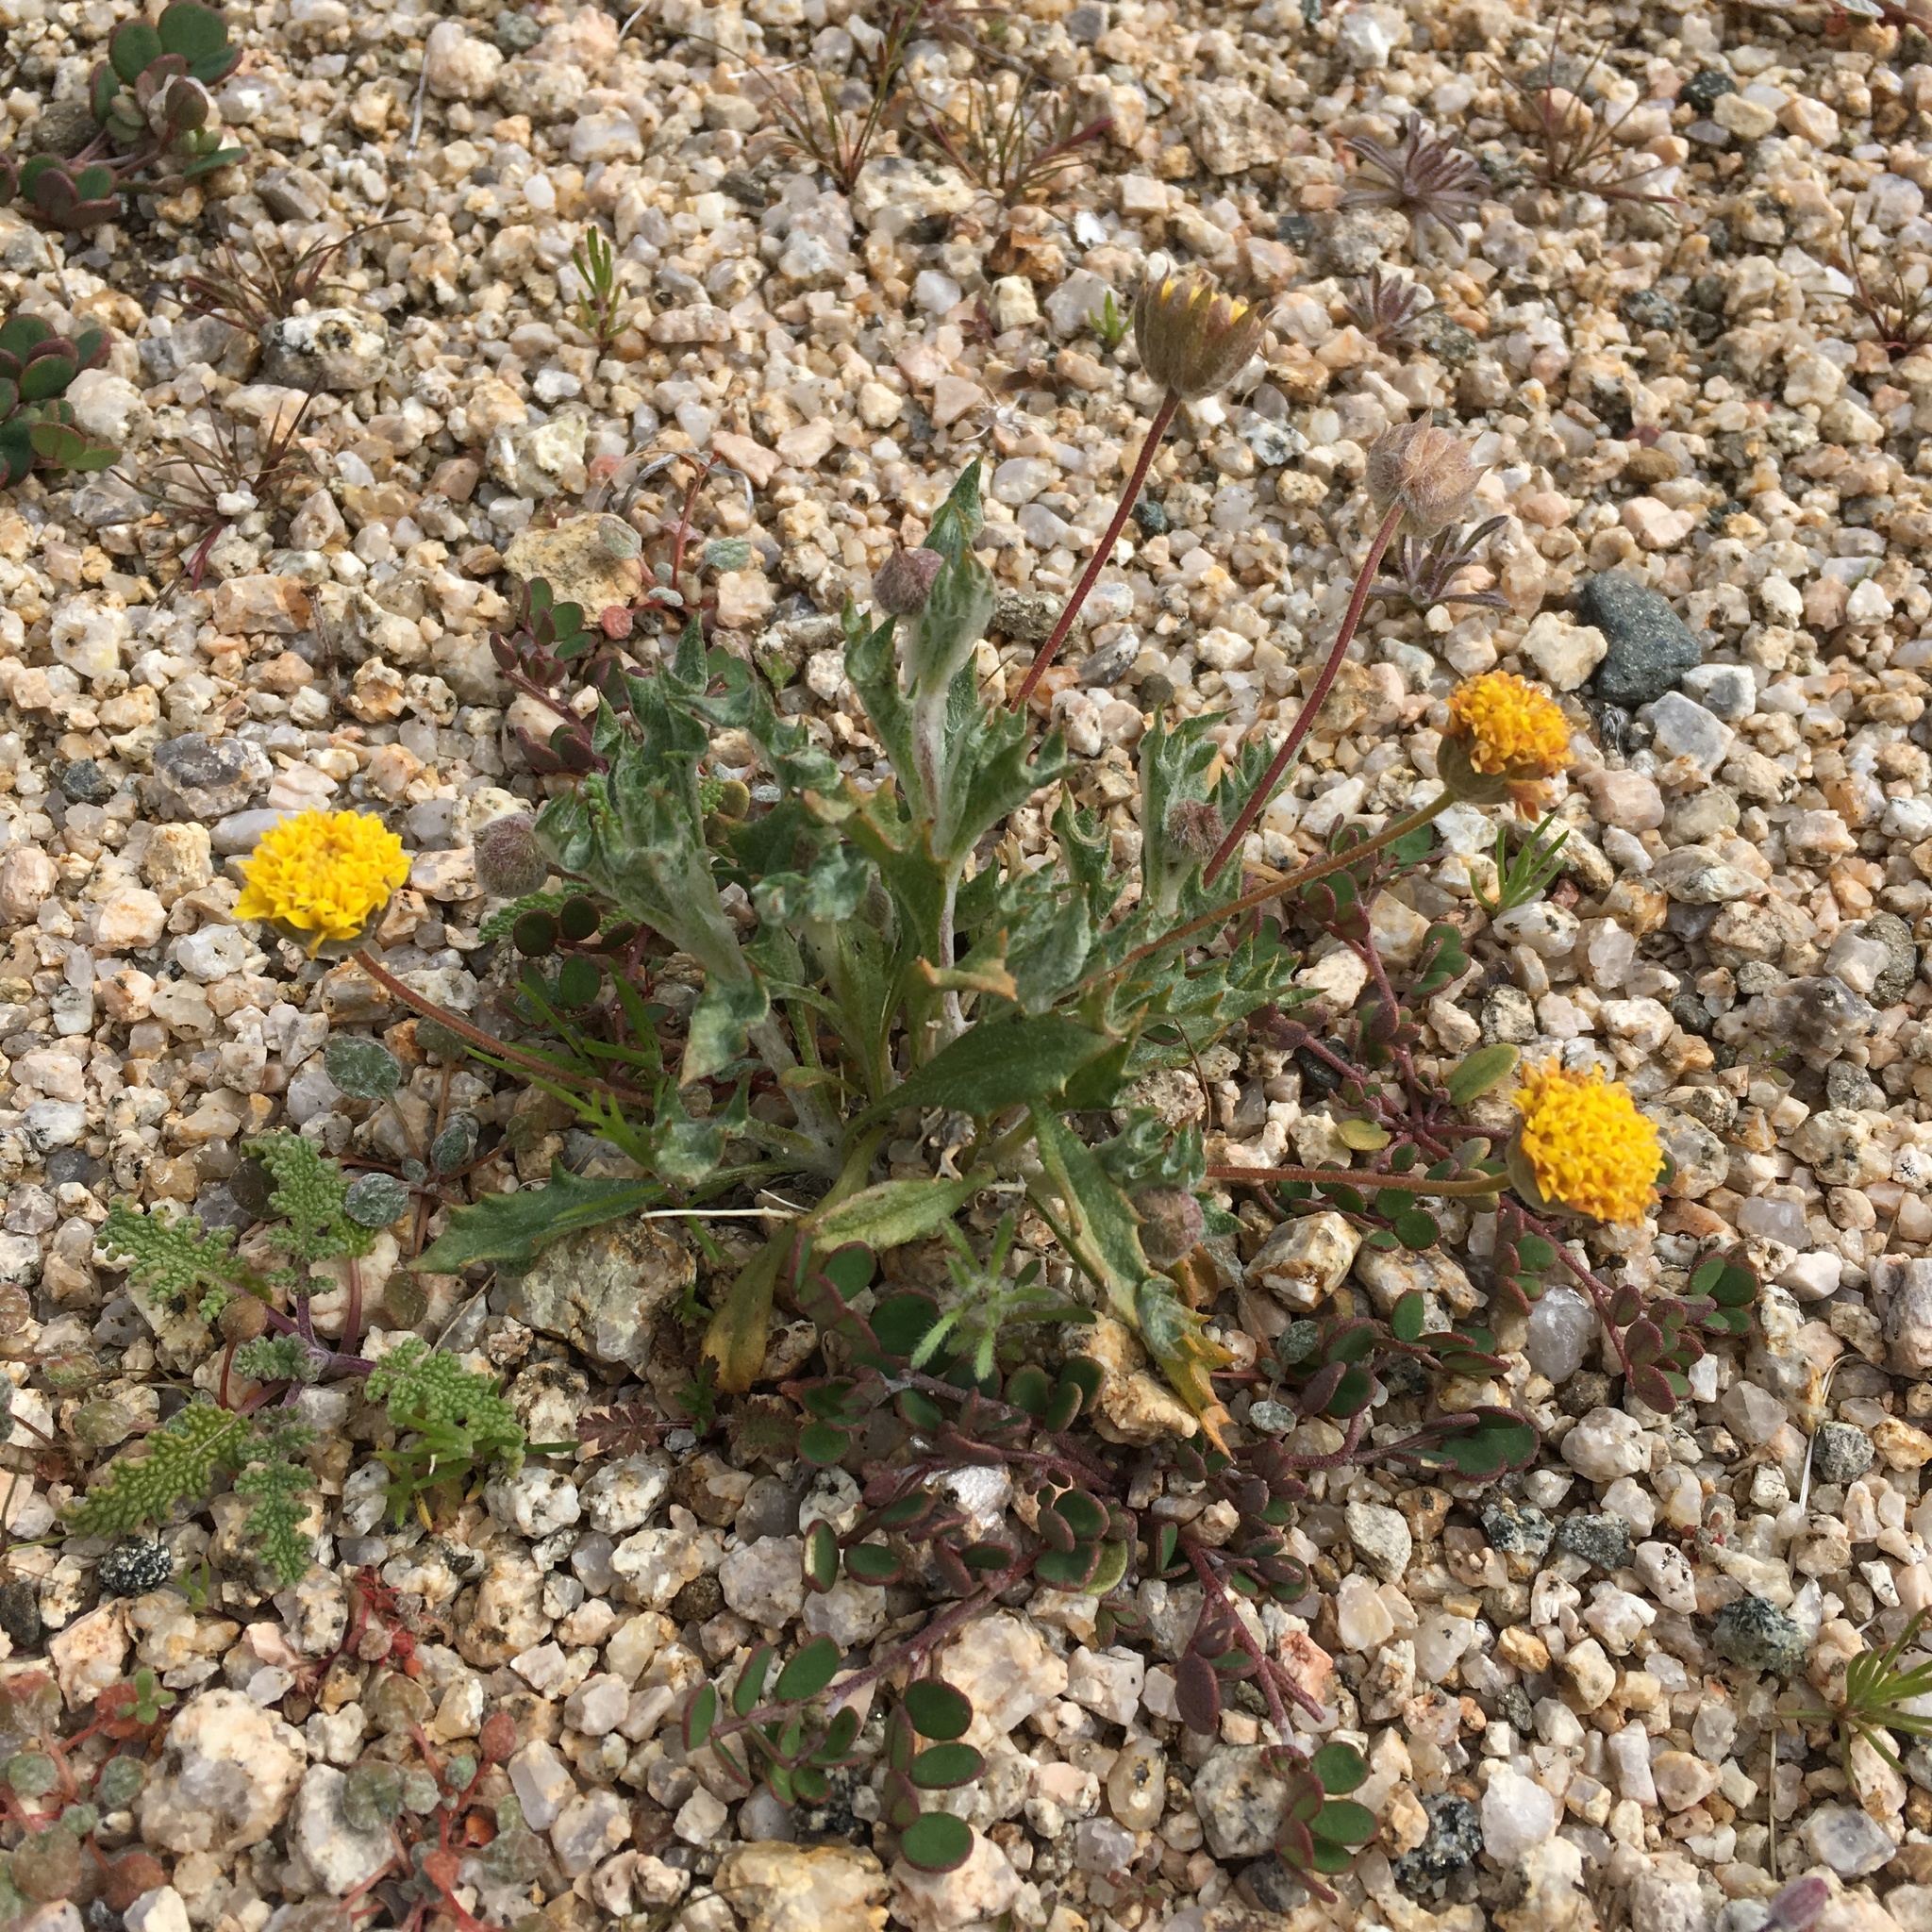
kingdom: Plantae
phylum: Tracheophyta
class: Magnoliopsida
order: Asterales
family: Asteraceae
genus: Trichoptilium
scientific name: Trichoptilium incisum
